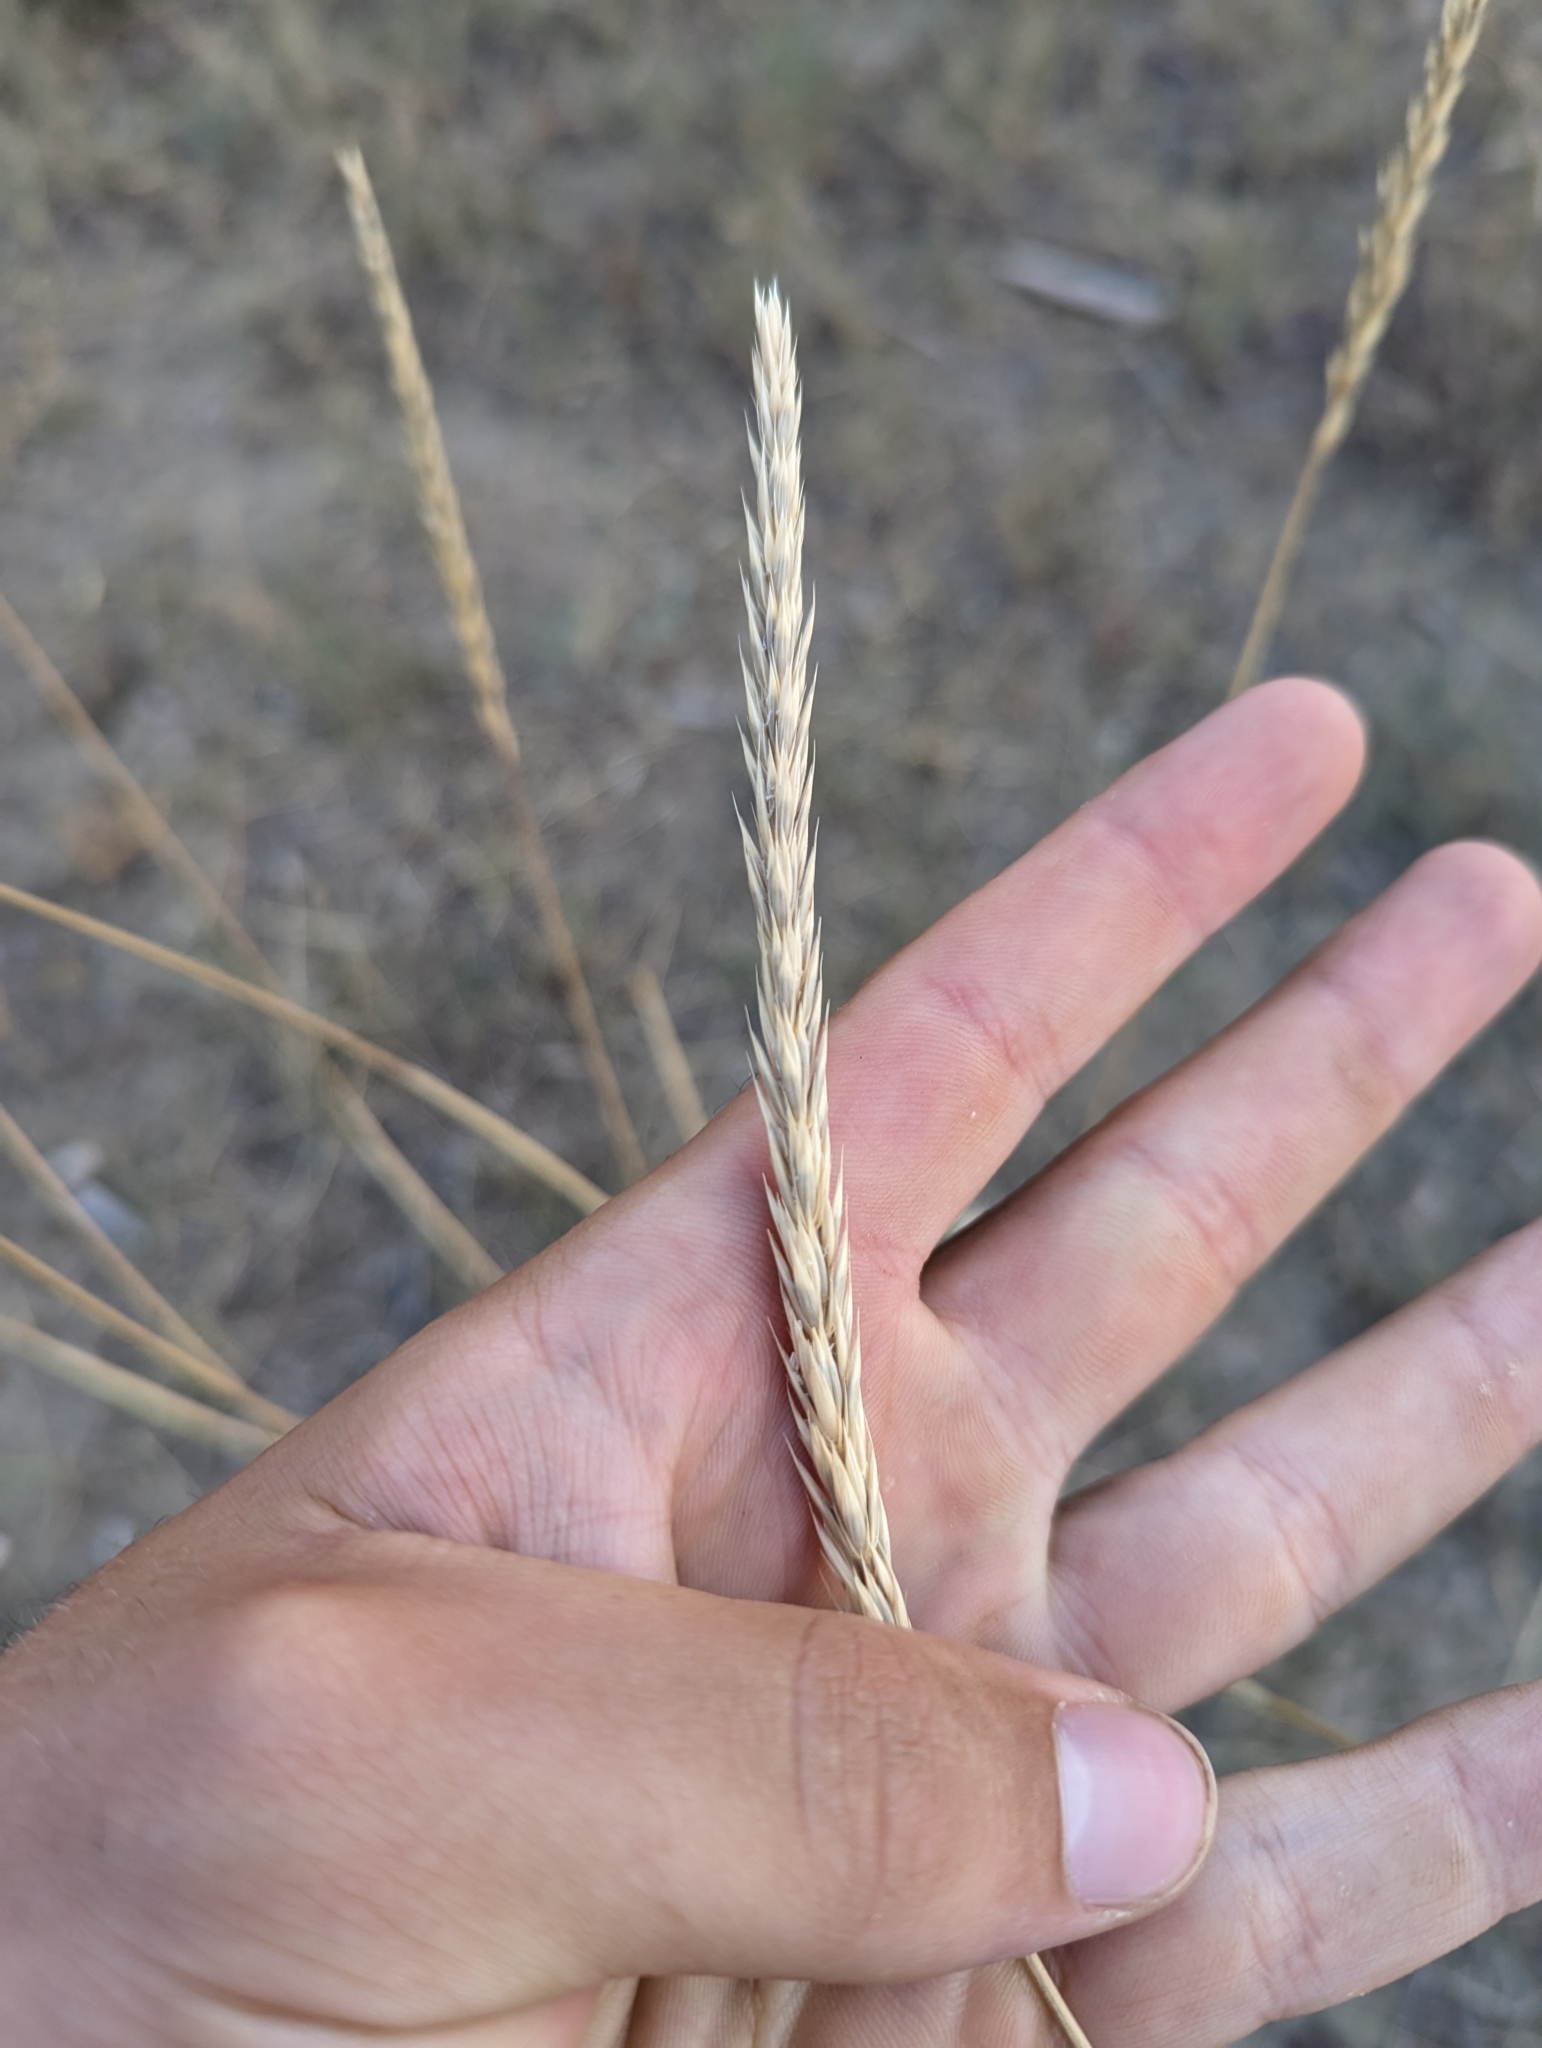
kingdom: Plantae
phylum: Tracheophyta
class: Liliopsida
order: Poales
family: Poaceae
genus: Psathyrostachys
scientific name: Psathyrostachys juncea
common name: Russian wildrye
